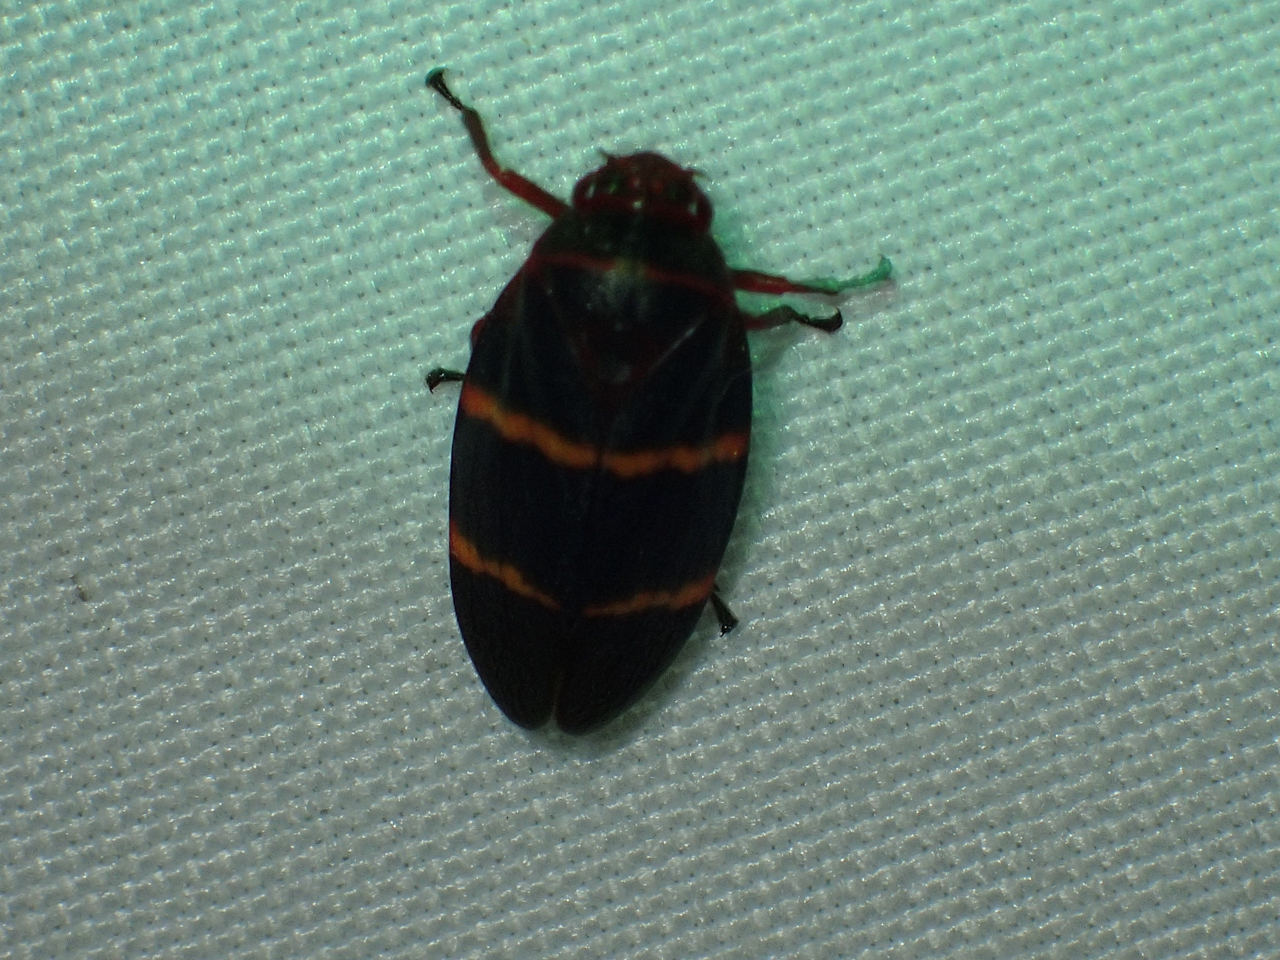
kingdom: Animalia
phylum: Arthropoda
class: Insecta
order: Hemiptera
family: Cercopidae
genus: Prosapia
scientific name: Prosapia bicincta
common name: Twolined spittlebug
